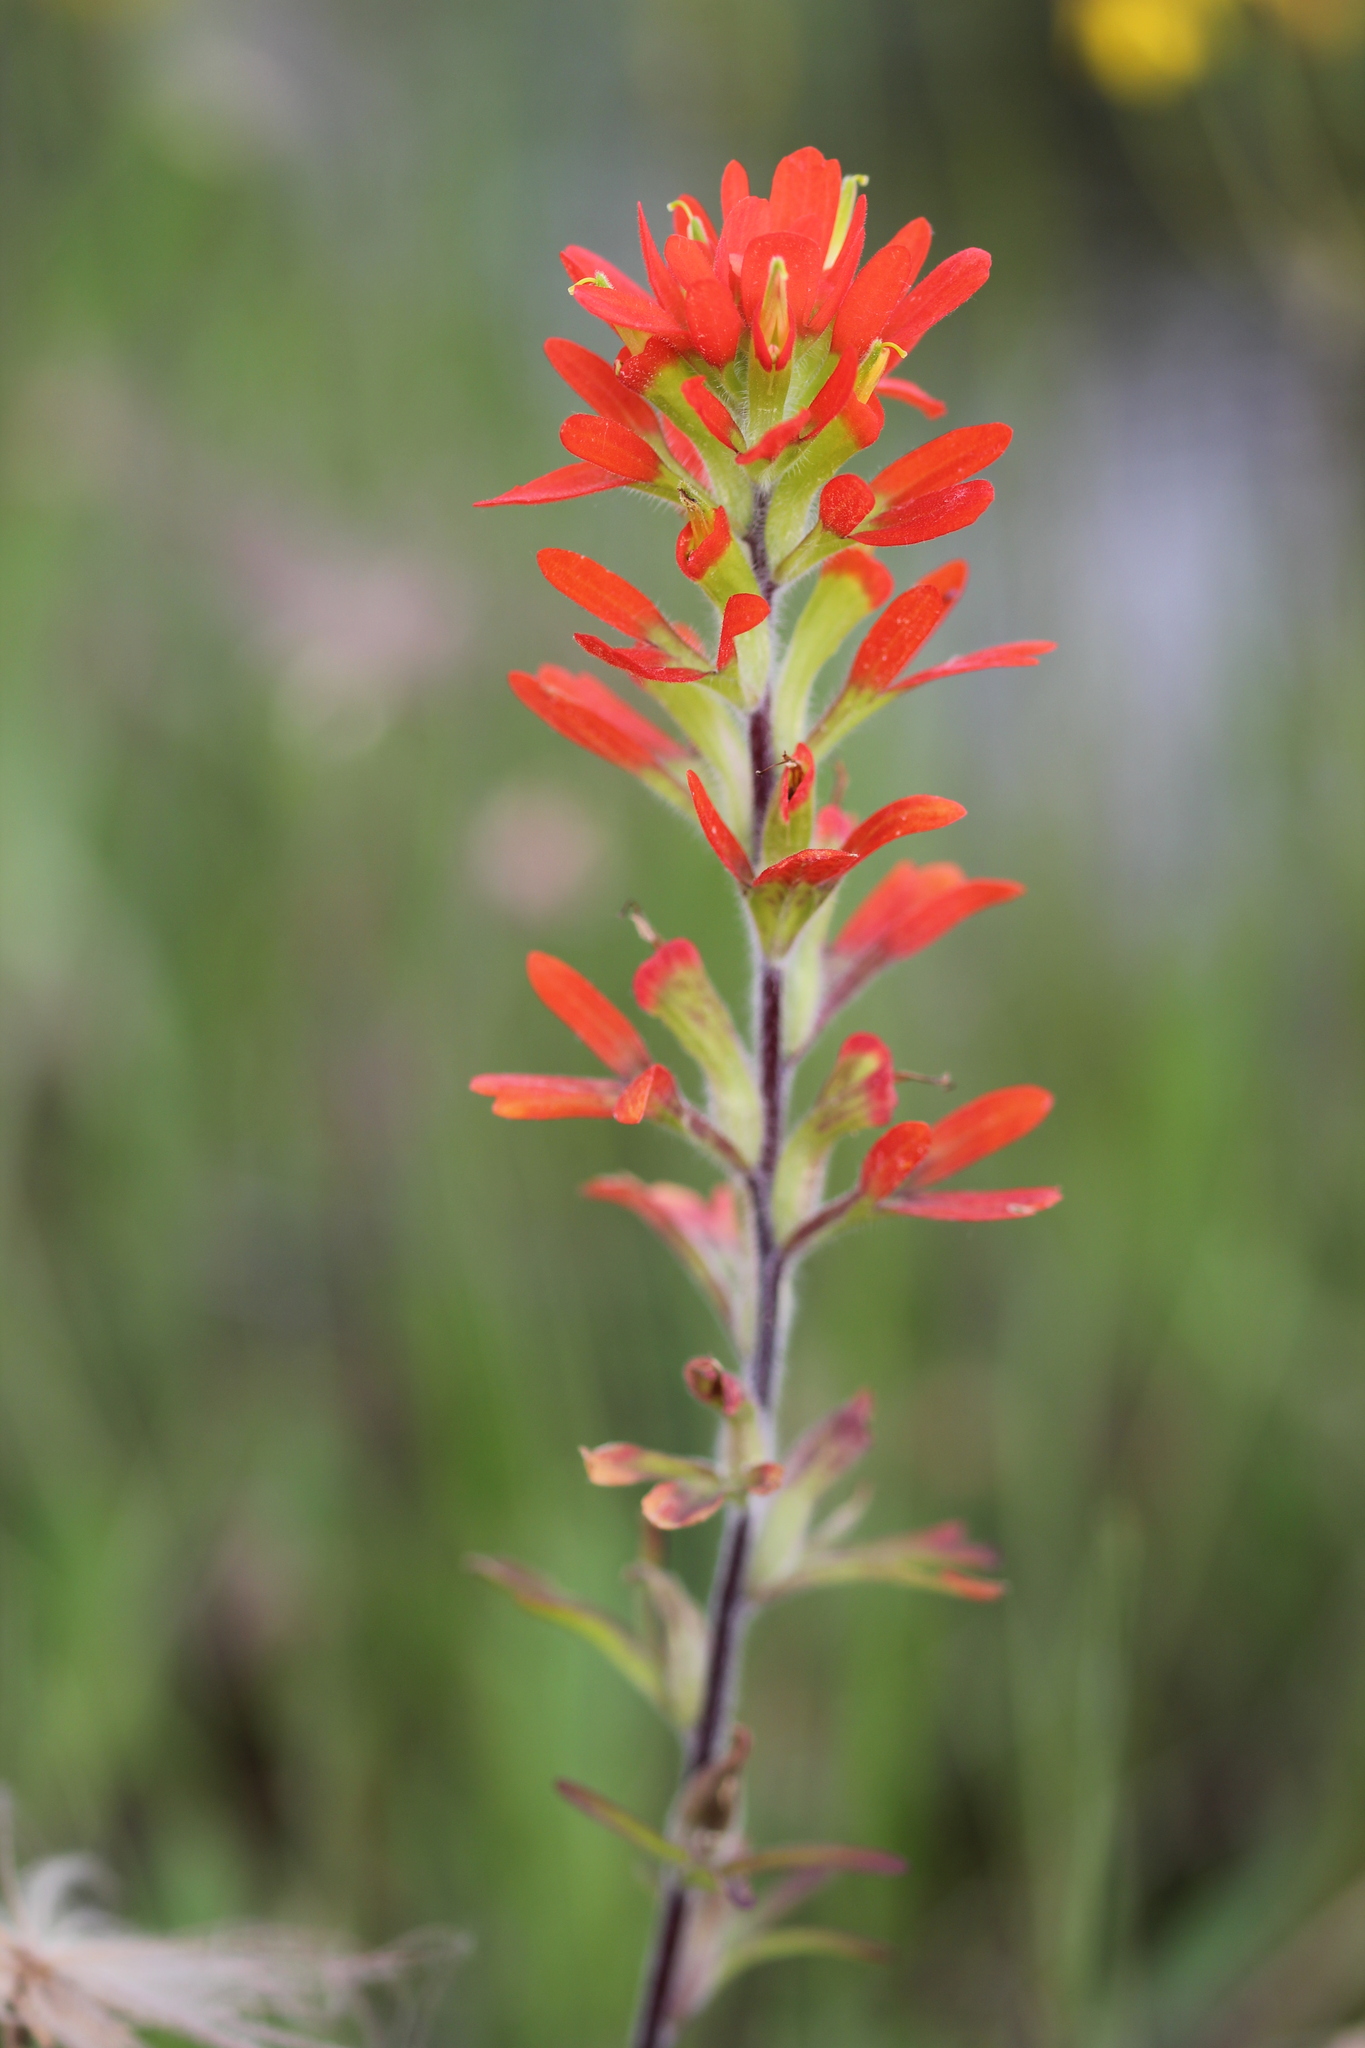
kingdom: Plantae
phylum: Tracheophyta
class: Magnoliopsida
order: Lamiales
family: Orobanchaceae
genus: Castilleja
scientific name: Castilleja coccinea
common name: Scarlet paintbrush
